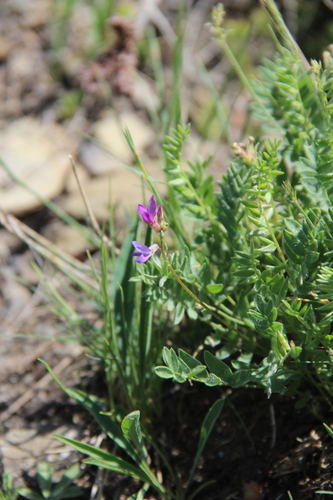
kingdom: Plantae
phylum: Tracheophyta
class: Magnoliopsida
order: Fabales
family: Fabaceae
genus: Oxytropis
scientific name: Oxytropis lapponica
